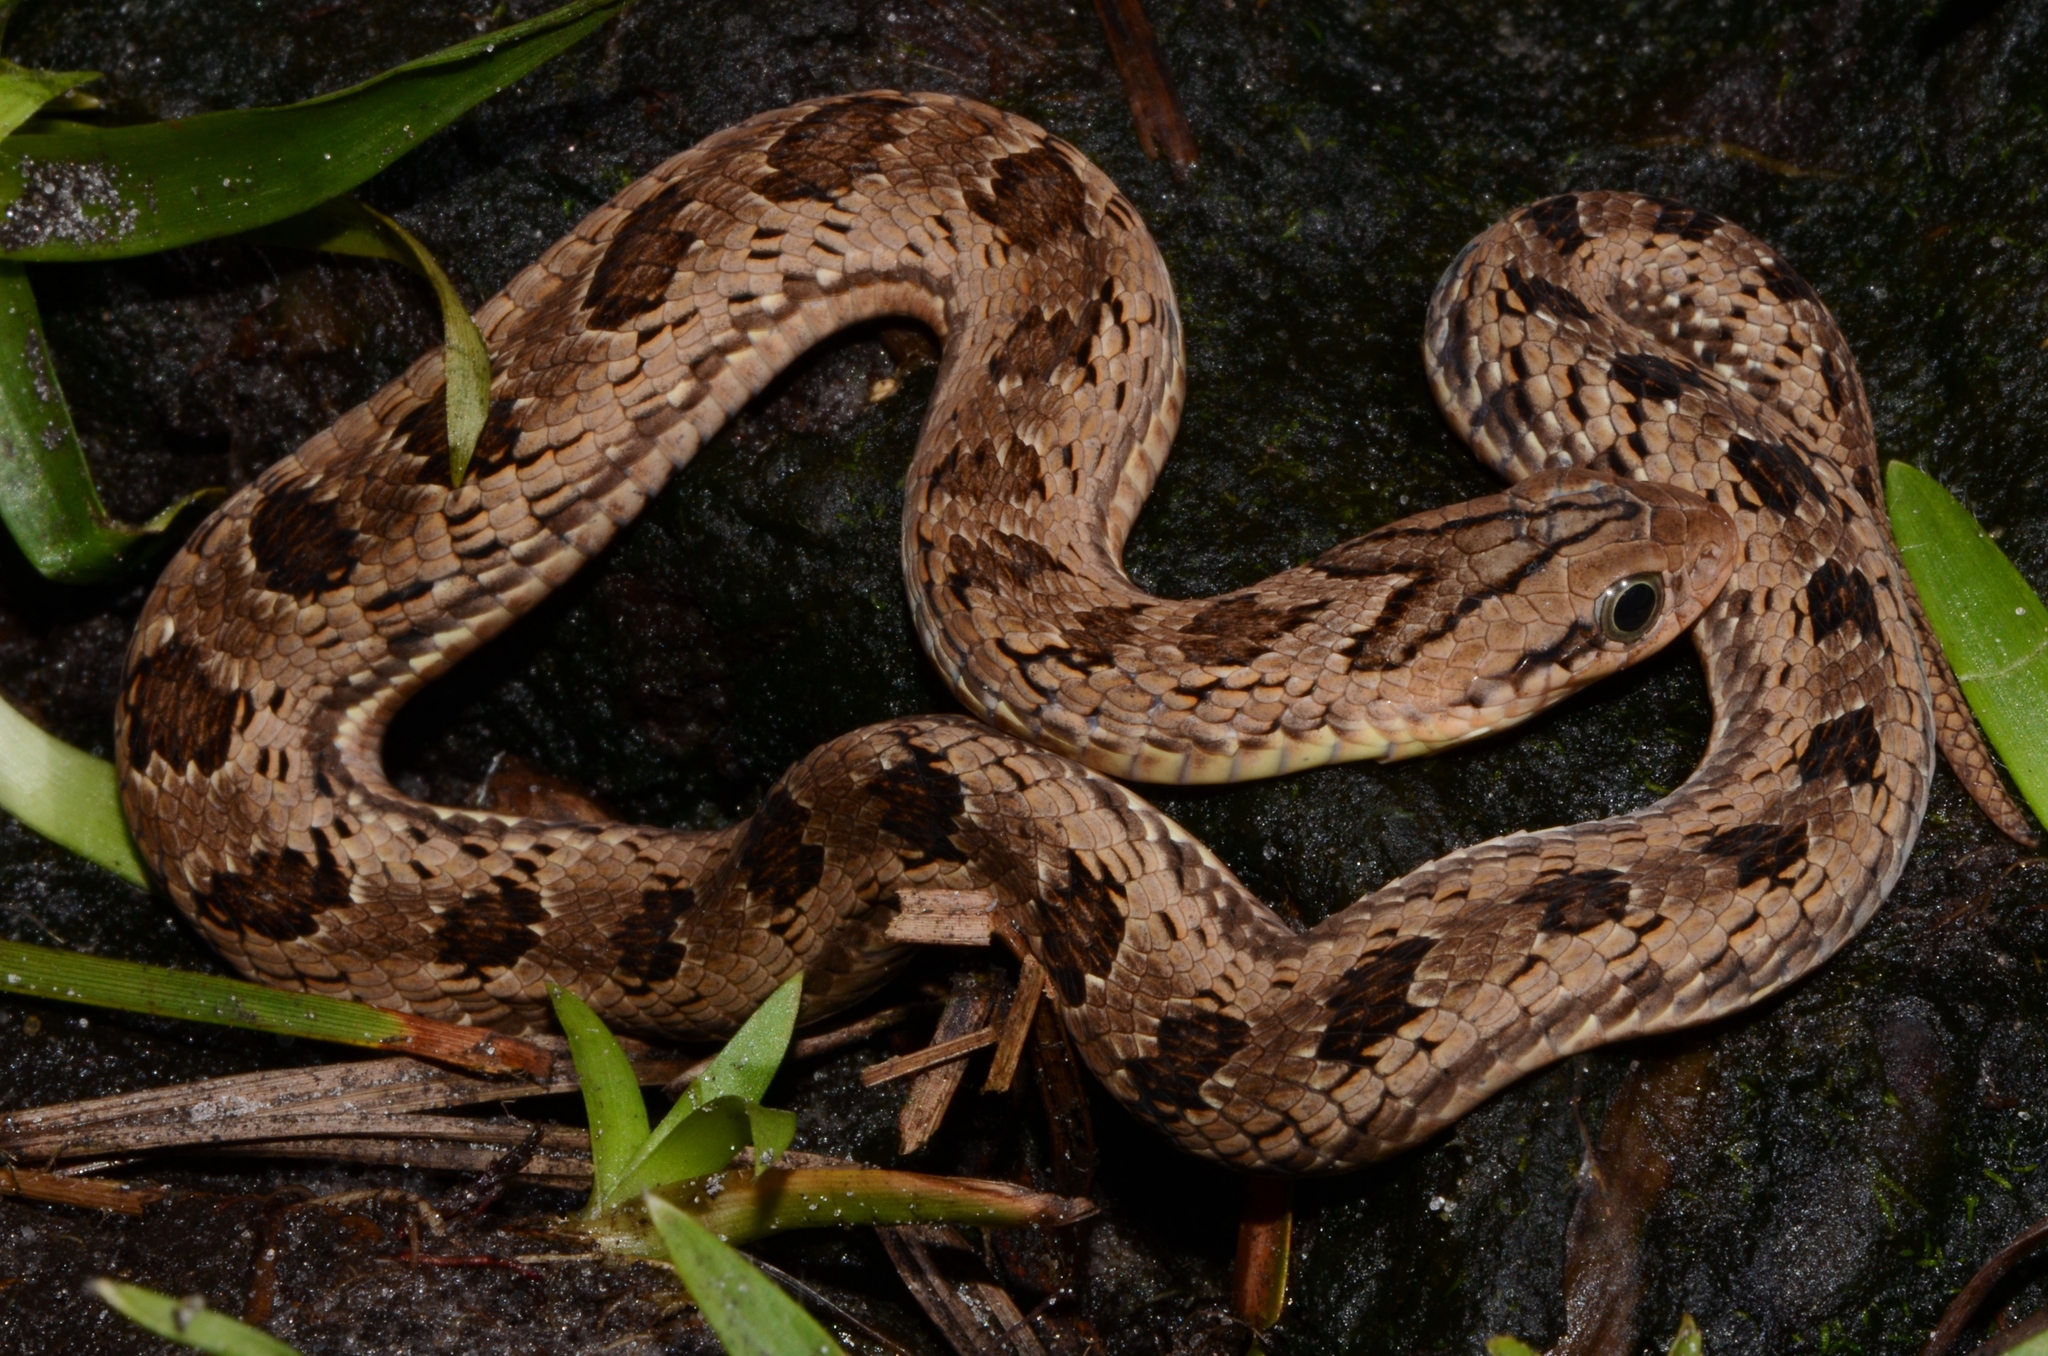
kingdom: Animalia
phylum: Chordata
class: Squamata
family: Viperidae
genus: Causus
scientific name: Causus maculatus
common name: Spotted night adder
